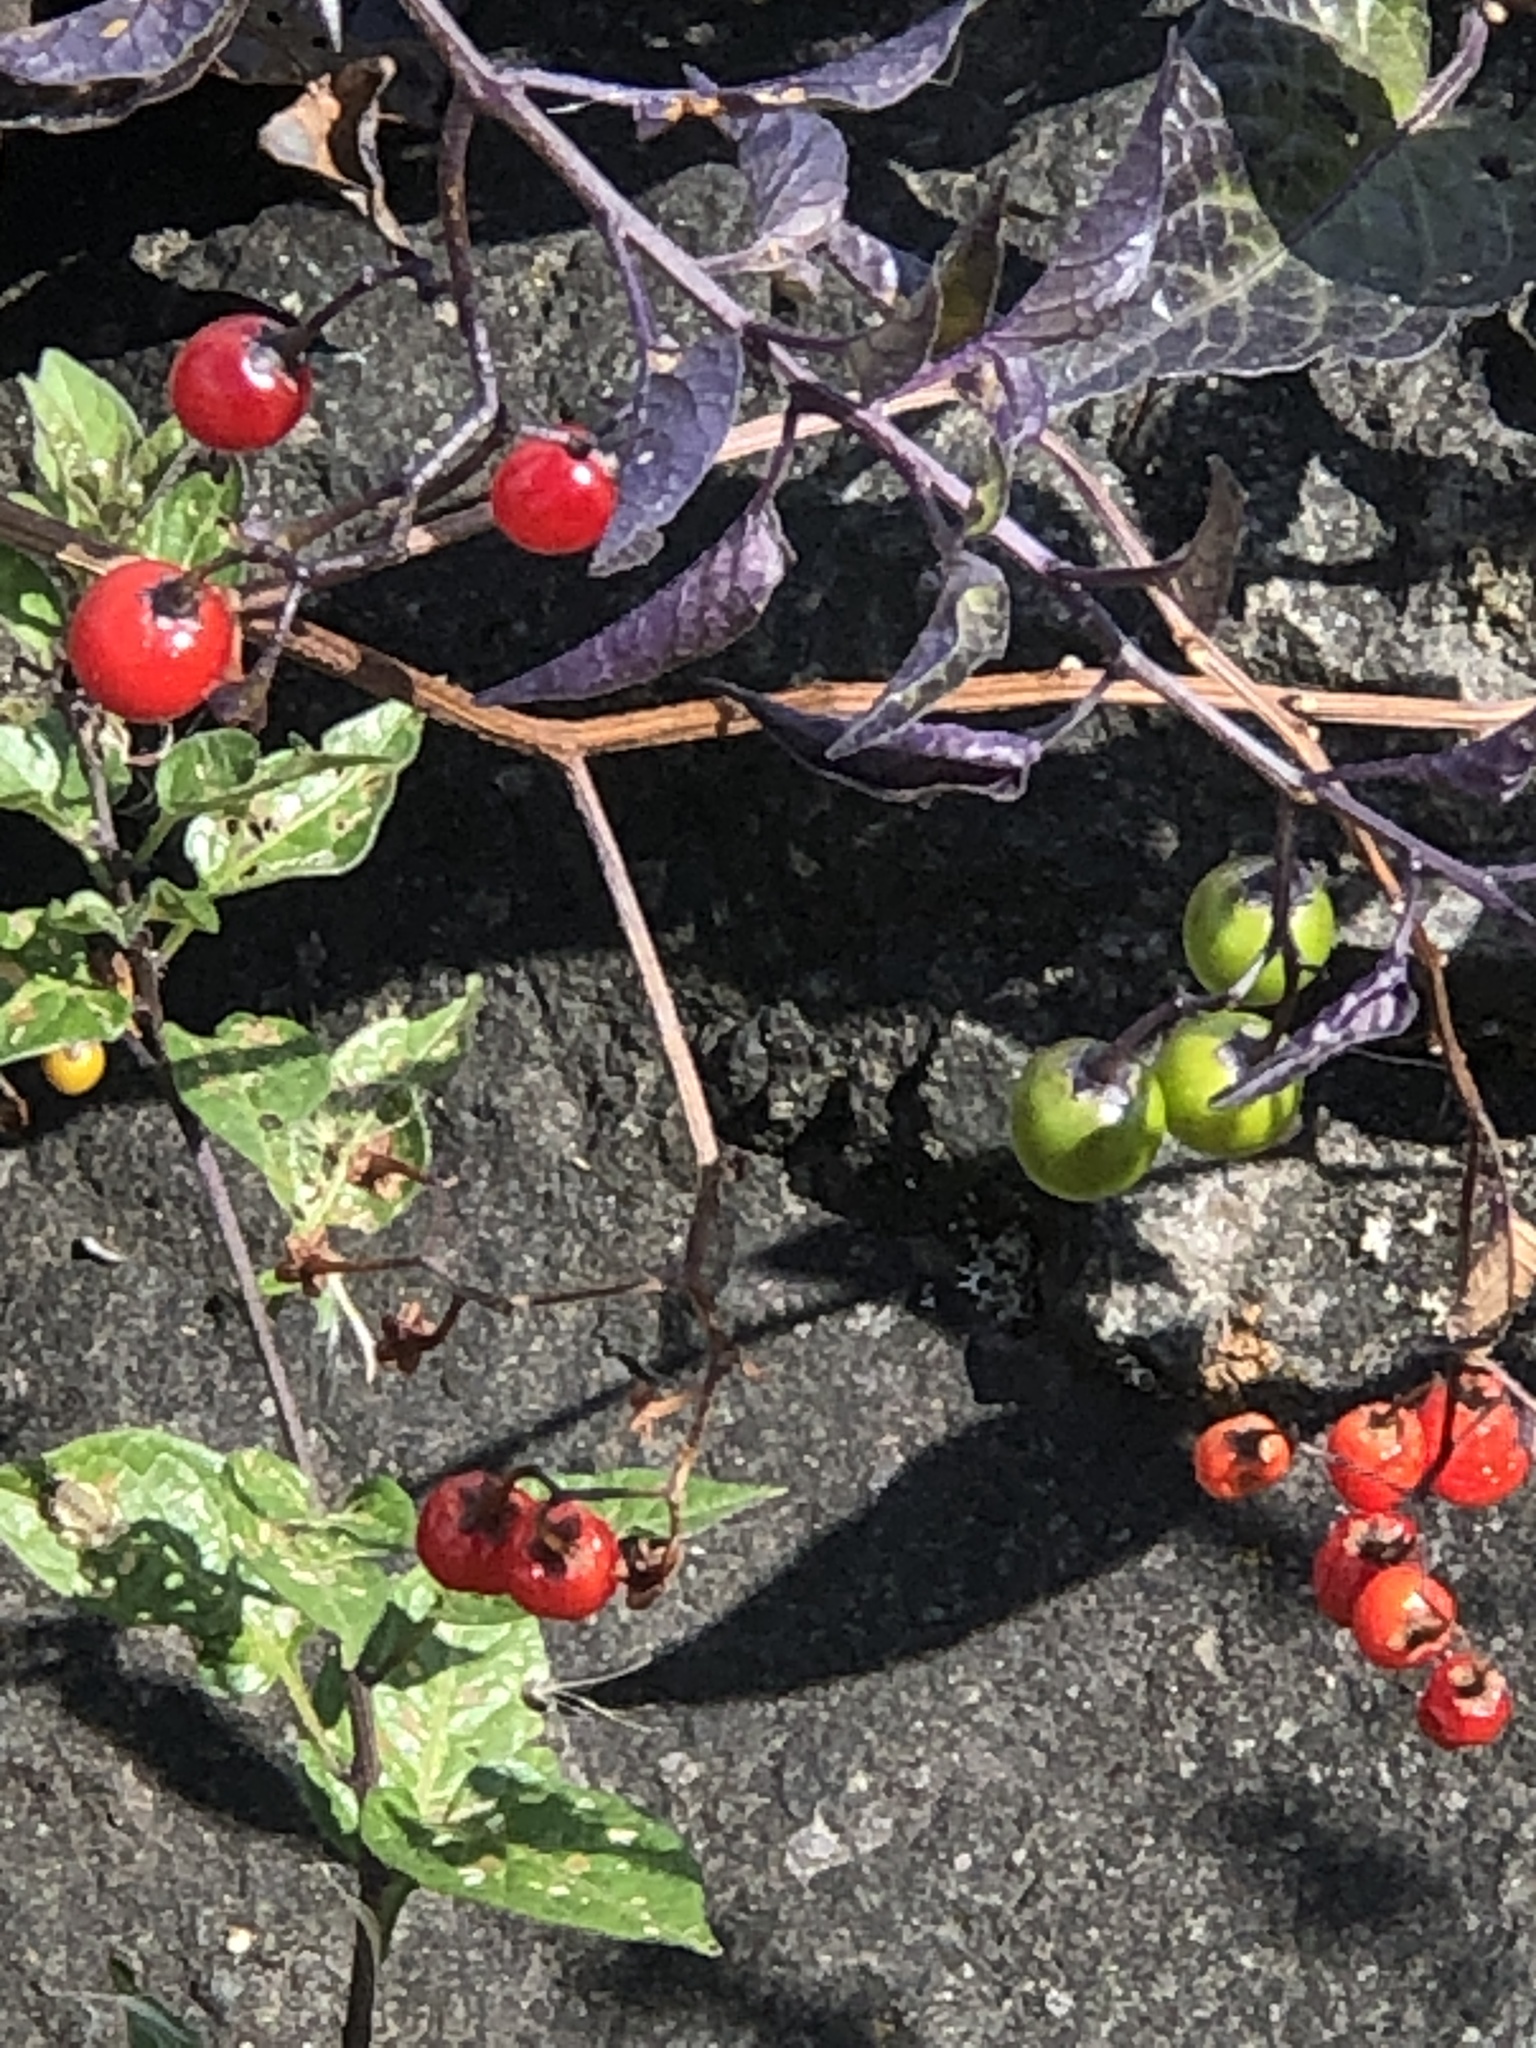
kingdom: Plantae
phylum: Tracheophyta
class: Magnoliopsida
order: Solanales
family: Solanaceae
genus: Solanum
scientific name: Solanum dulcamara
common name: Climbing nightshade
